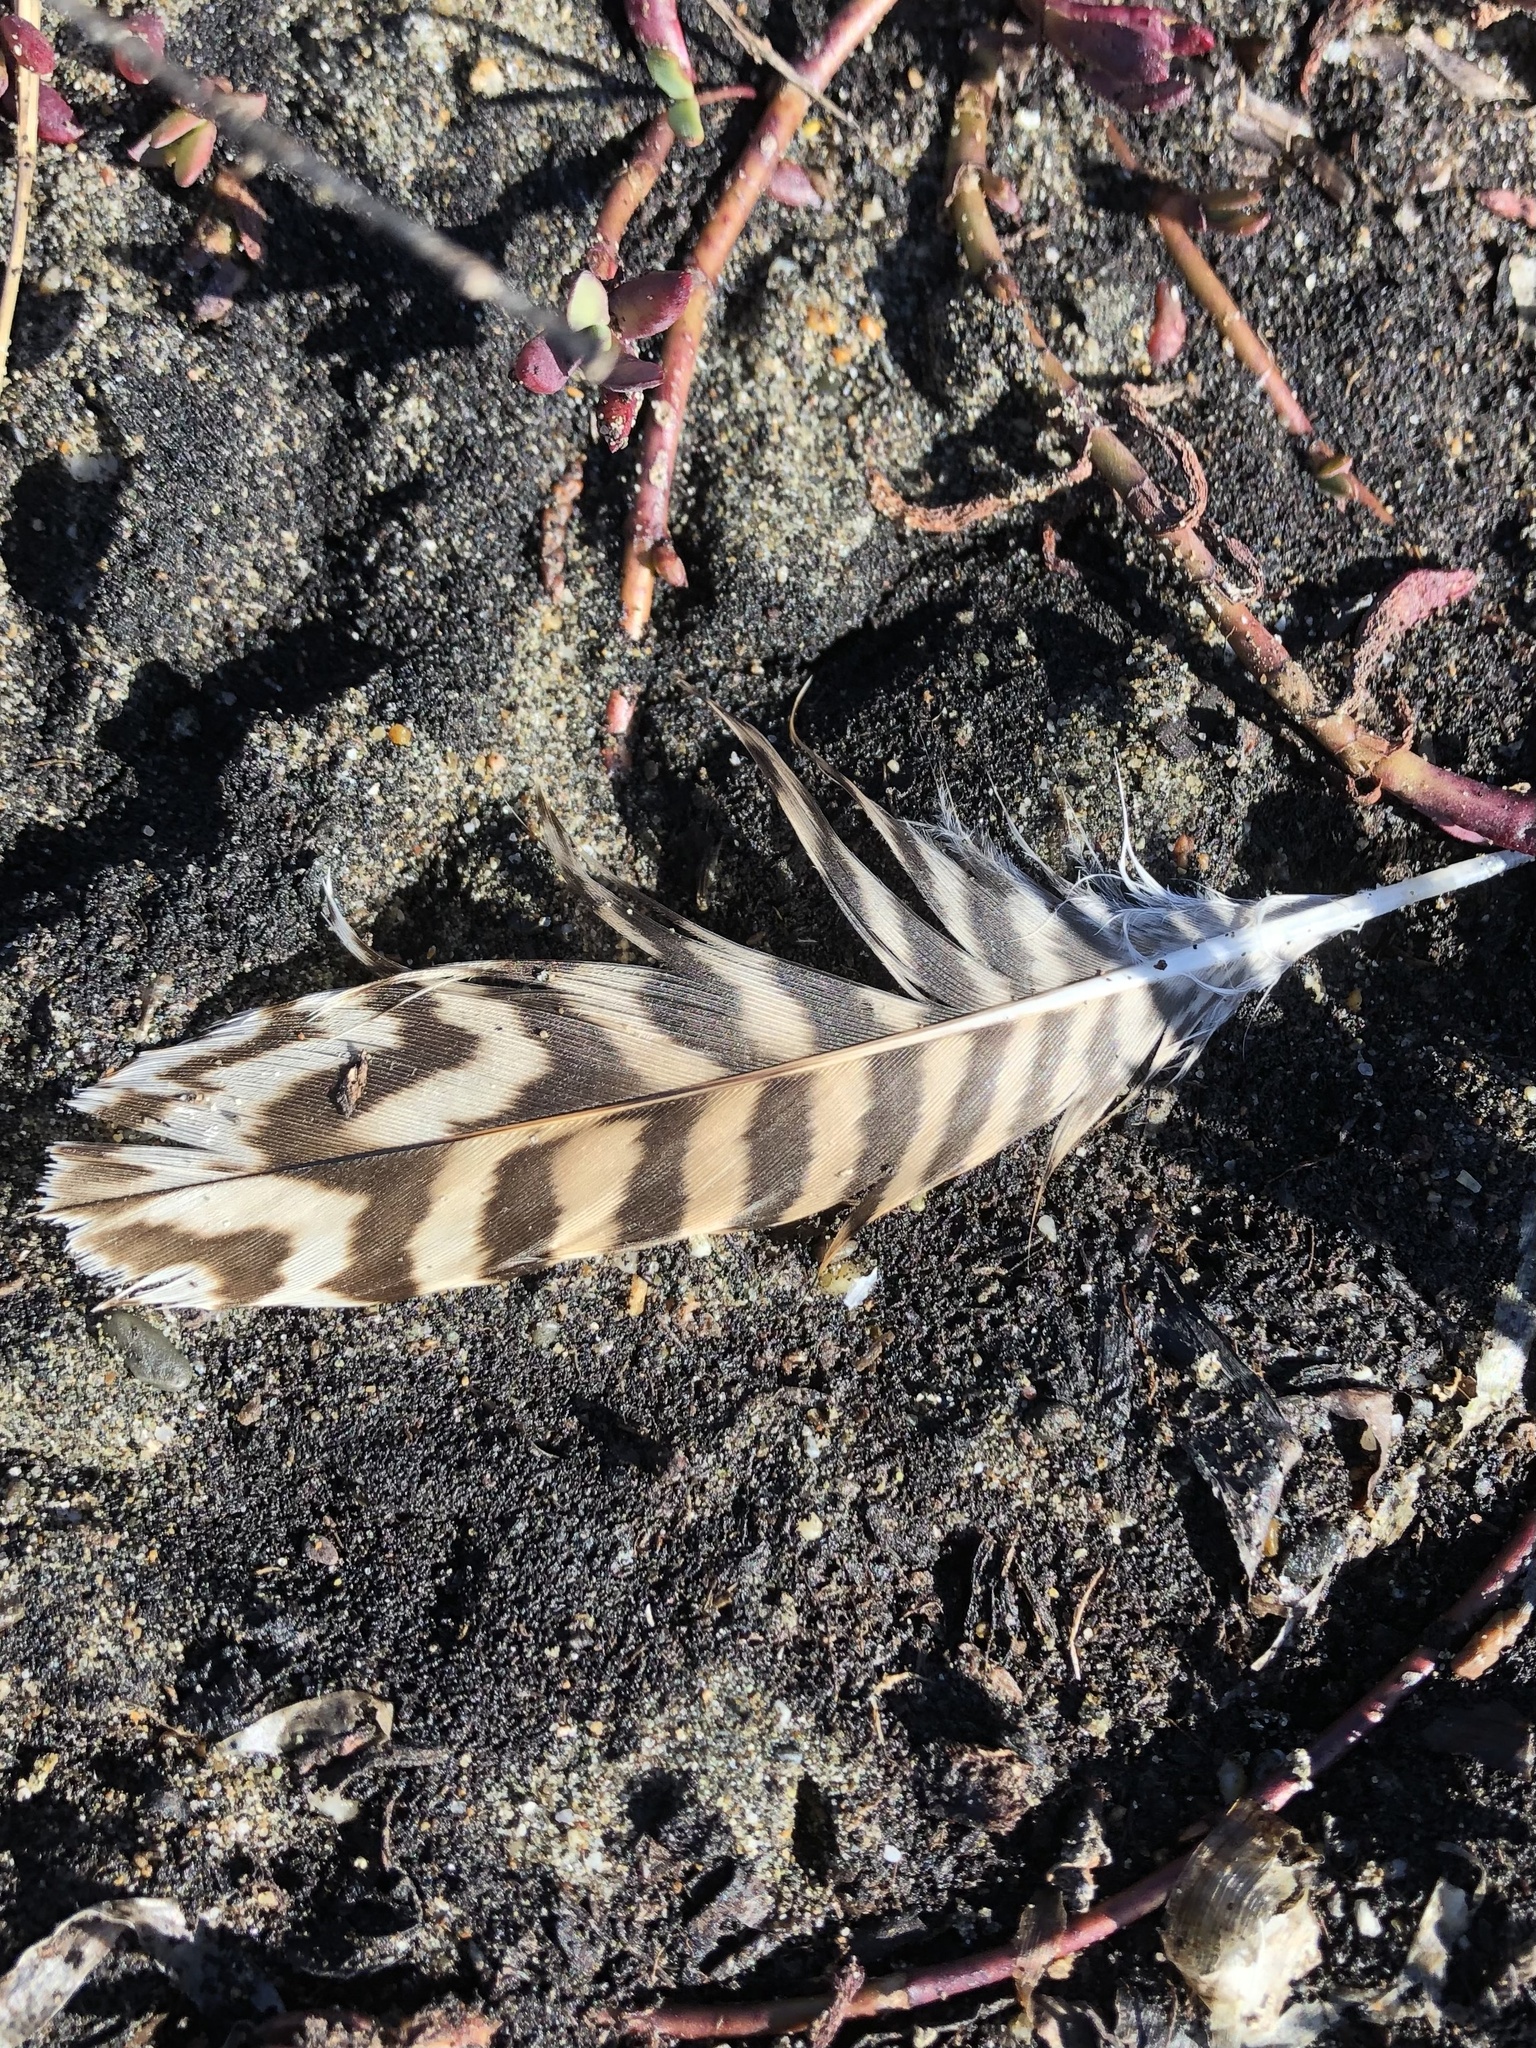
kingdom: Animalia
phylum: Chordata
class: Aves
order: Charadriiformes
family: Scolopacidae
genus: Numenius
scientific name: Numenius americanus
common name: Long-billed curlew
